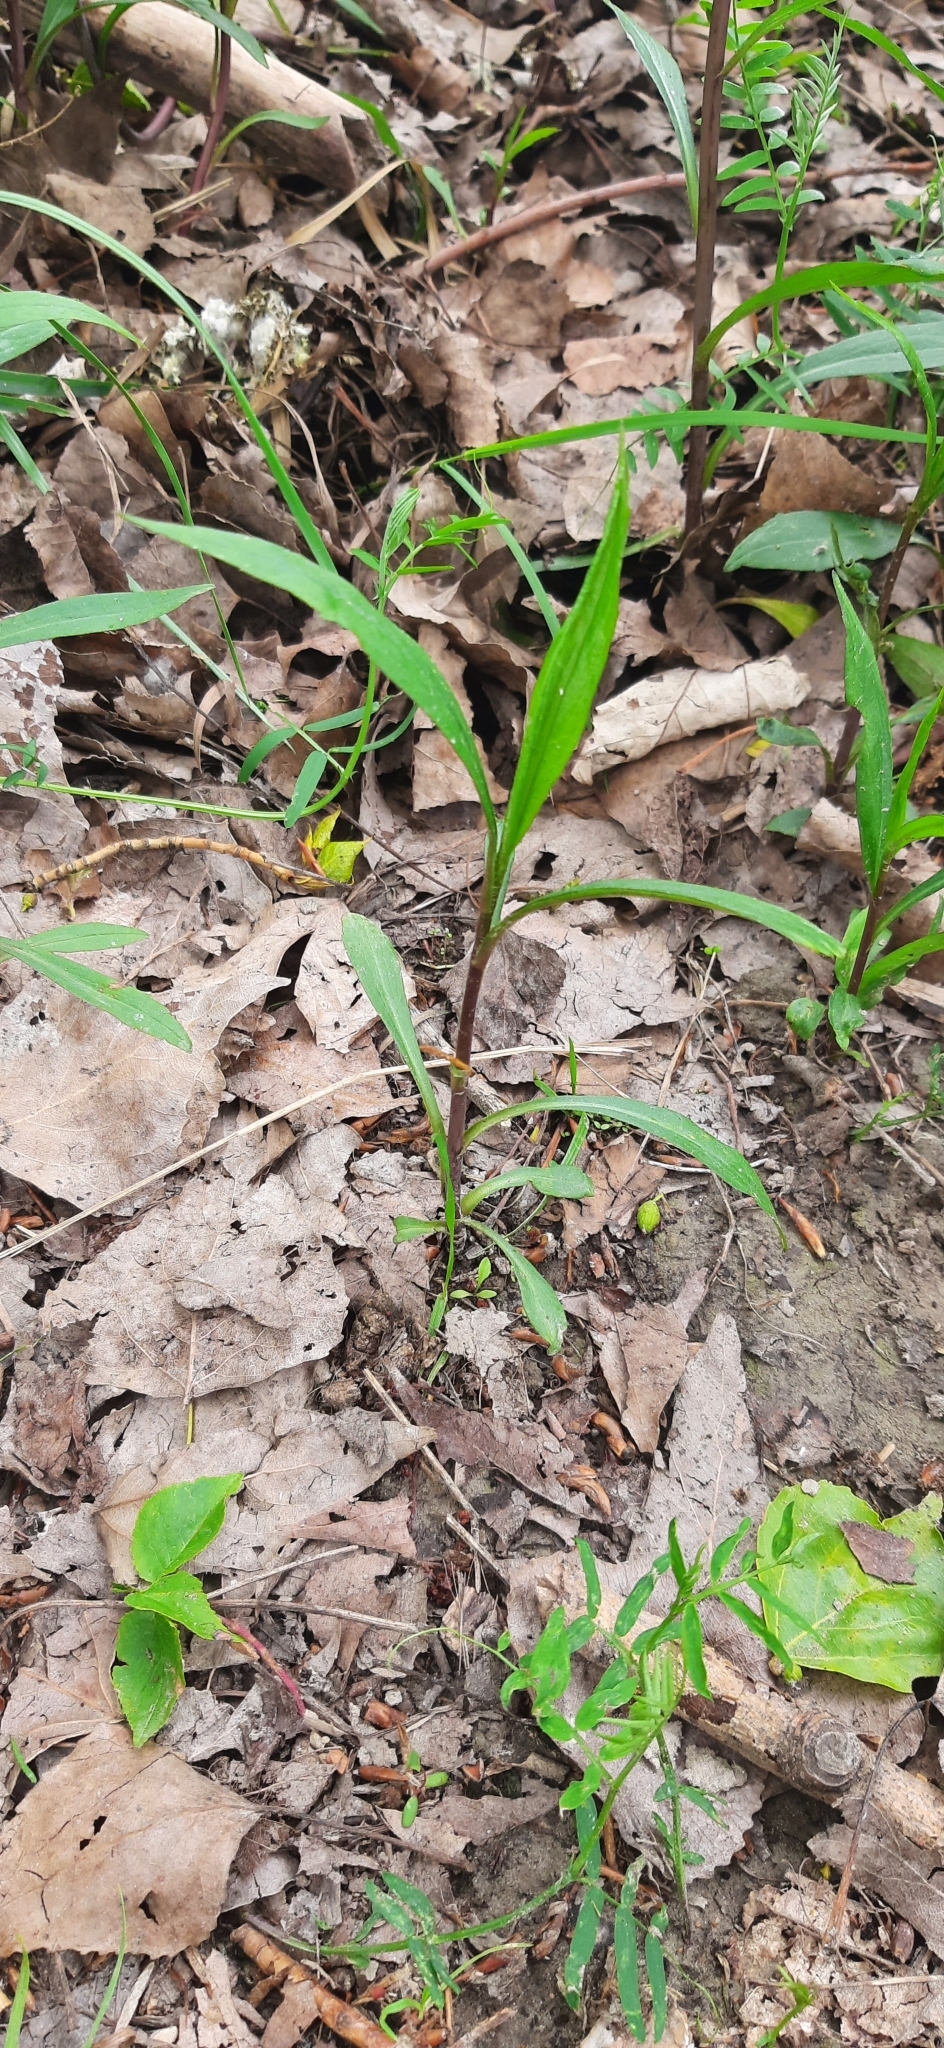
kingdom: Plantae
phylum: Tracheophyta
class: Magnoliopsida
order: Asterales
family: Asteraceae
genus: Solidago
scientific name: Solidago gigantea
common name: Giant goldenrod
